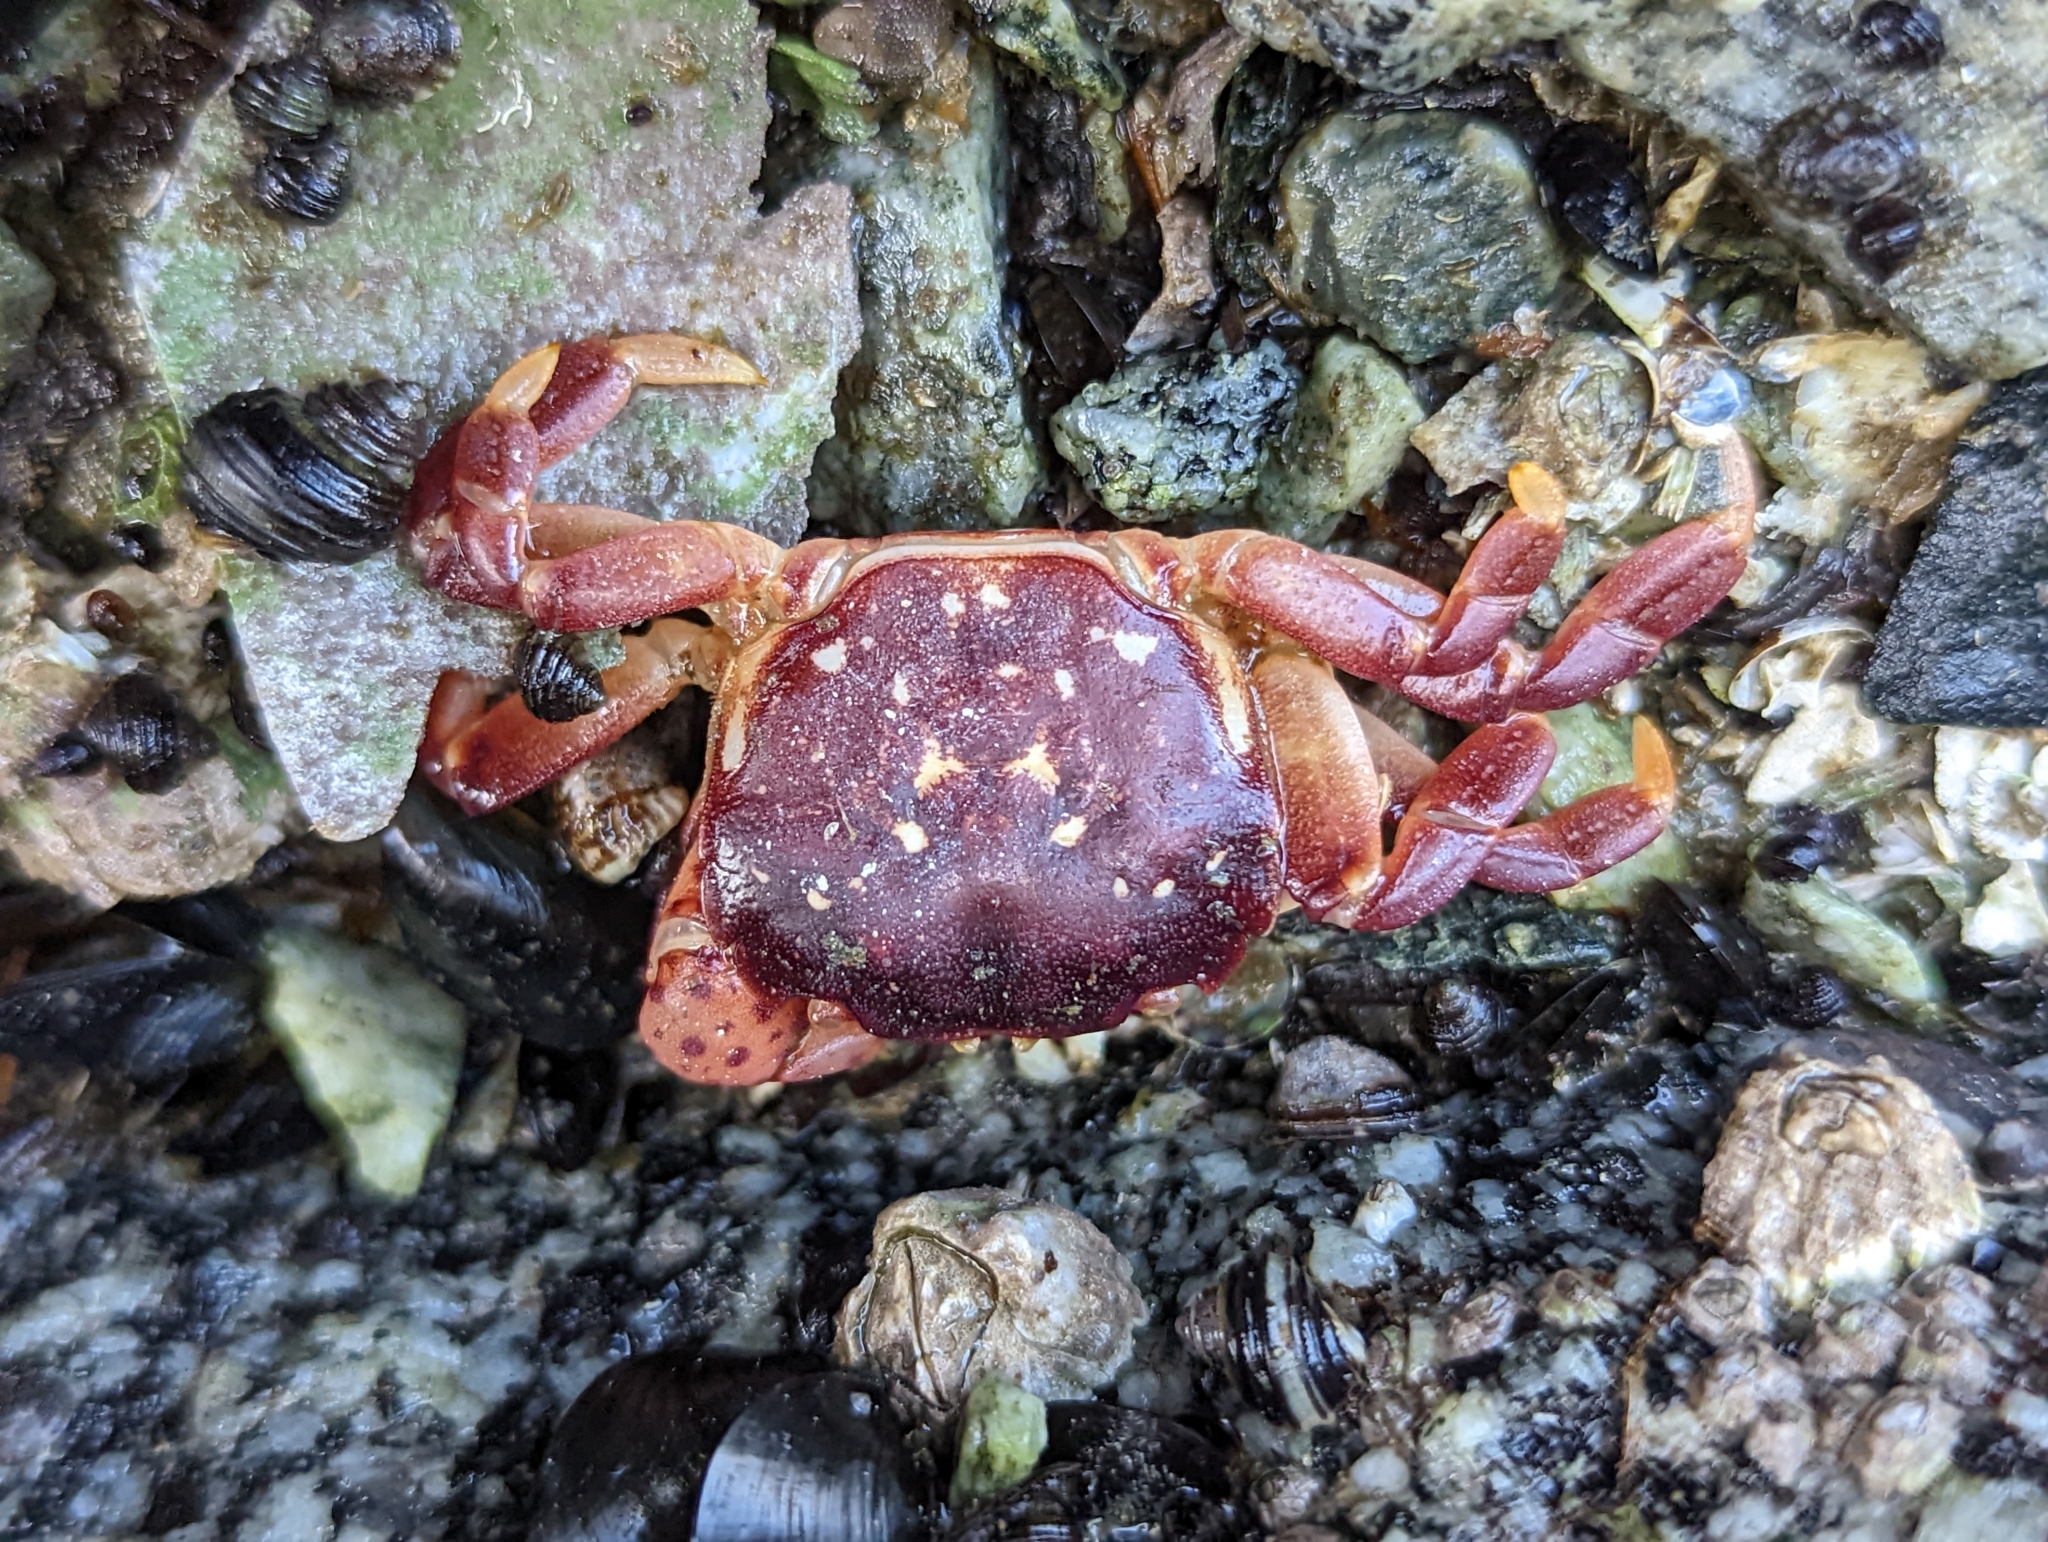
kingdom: Animalia
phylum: Arthropoda
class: Malacostraca
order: Decapoda
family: Varunidae
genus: Hemigrapsus
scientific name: Hemigrapsus nudus
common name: Purple shore crab
